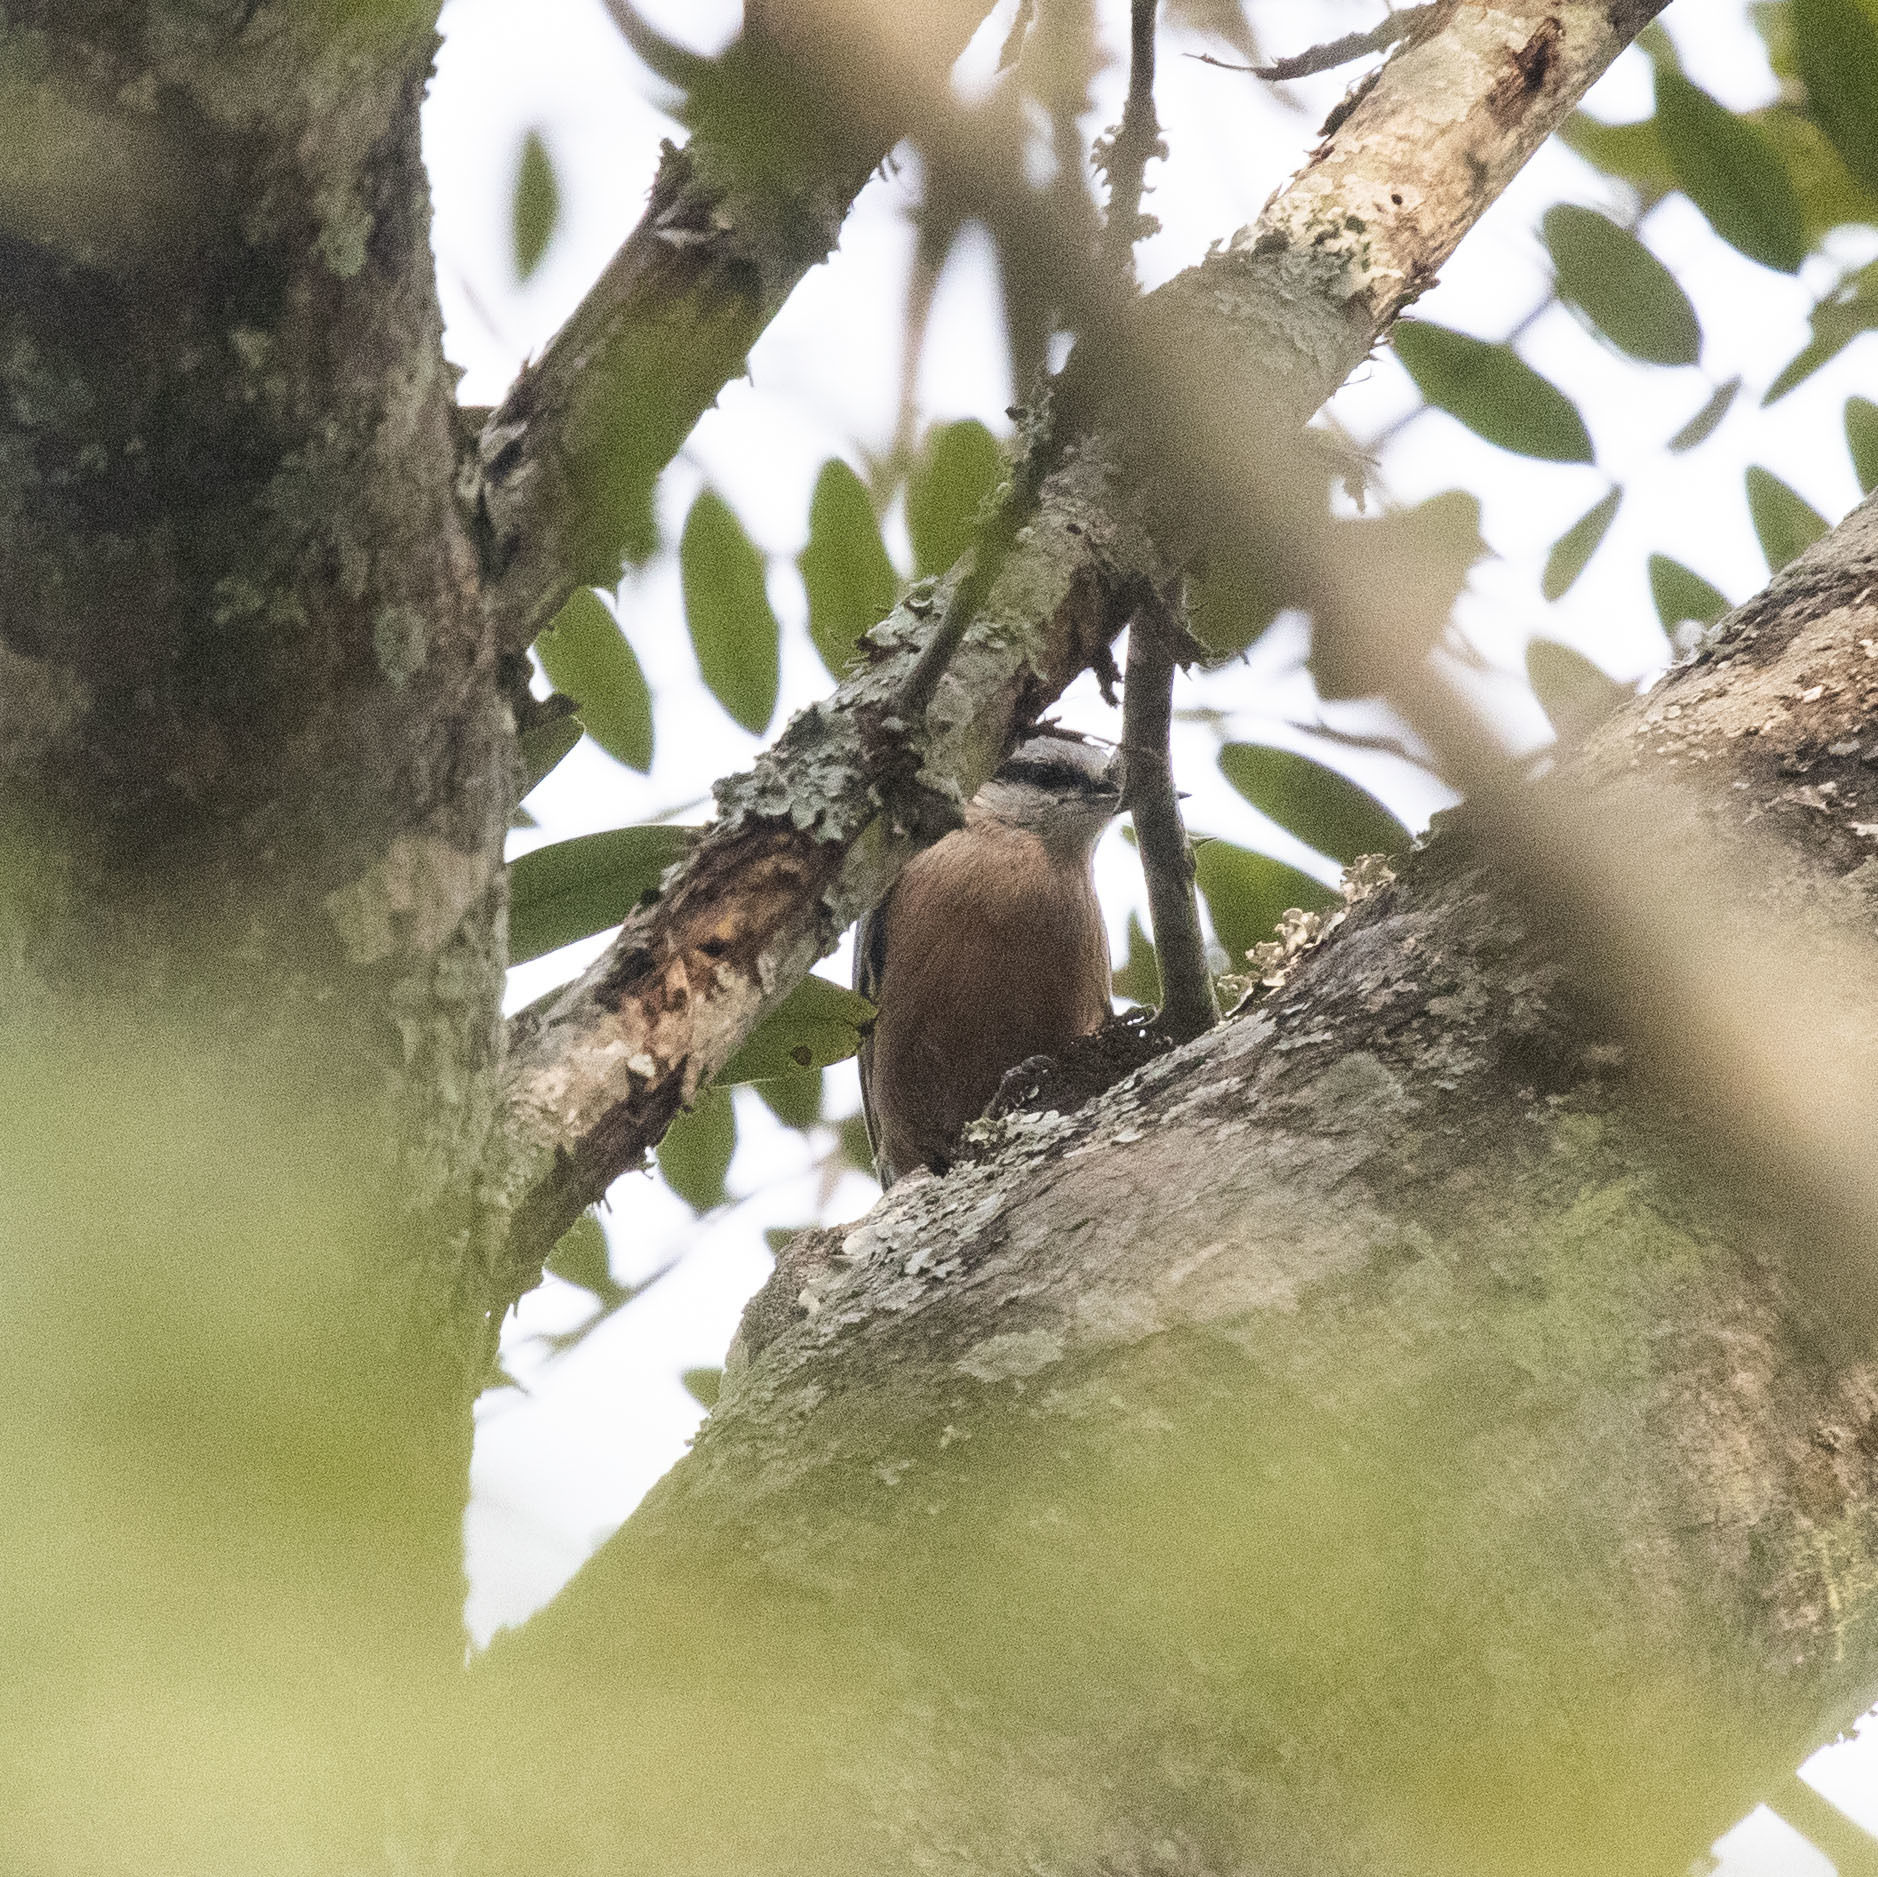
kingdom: Animalia
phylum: Chordata
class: Aves
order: Passeriformes
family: Sittidae
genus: Sitta
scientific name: Sitta castanea
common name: Indian nuthatch
